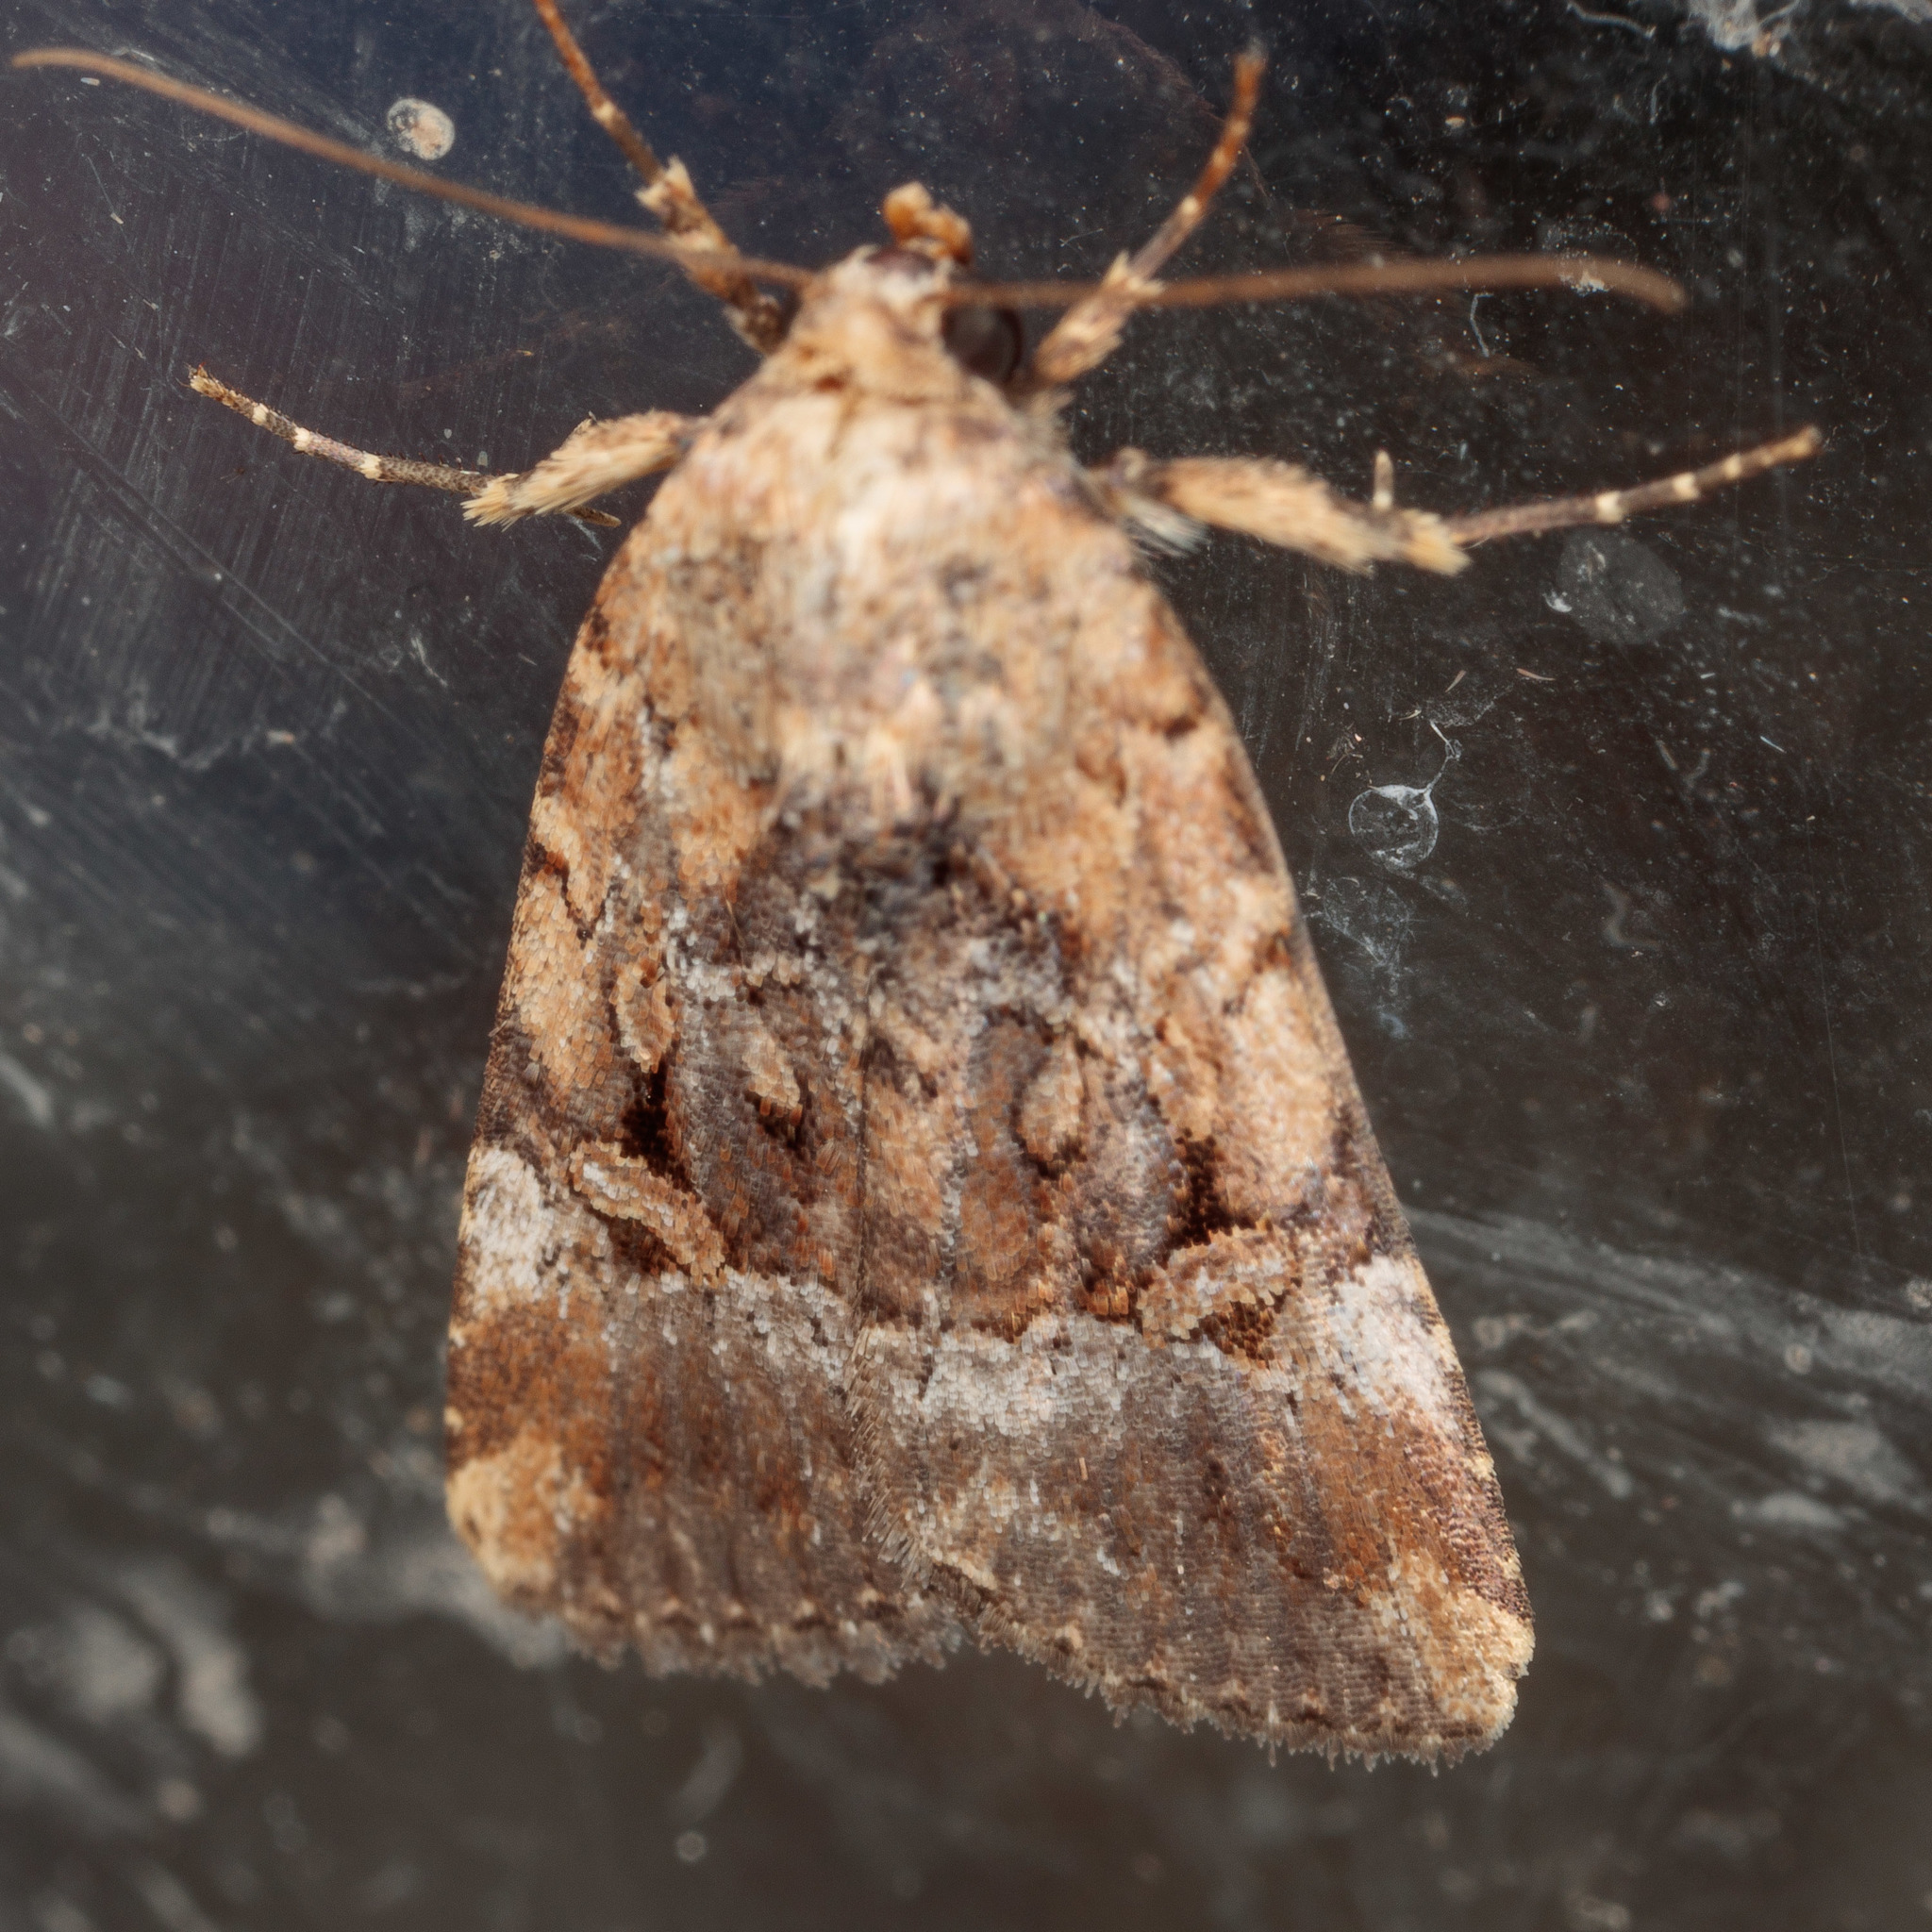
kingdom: Animalia
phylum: Arthropoda
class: Insecta
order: Lepidoptera
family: Noctuidae
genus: Elaphria
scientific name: Elaphria chalcedonia
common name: Chalcedony midget
